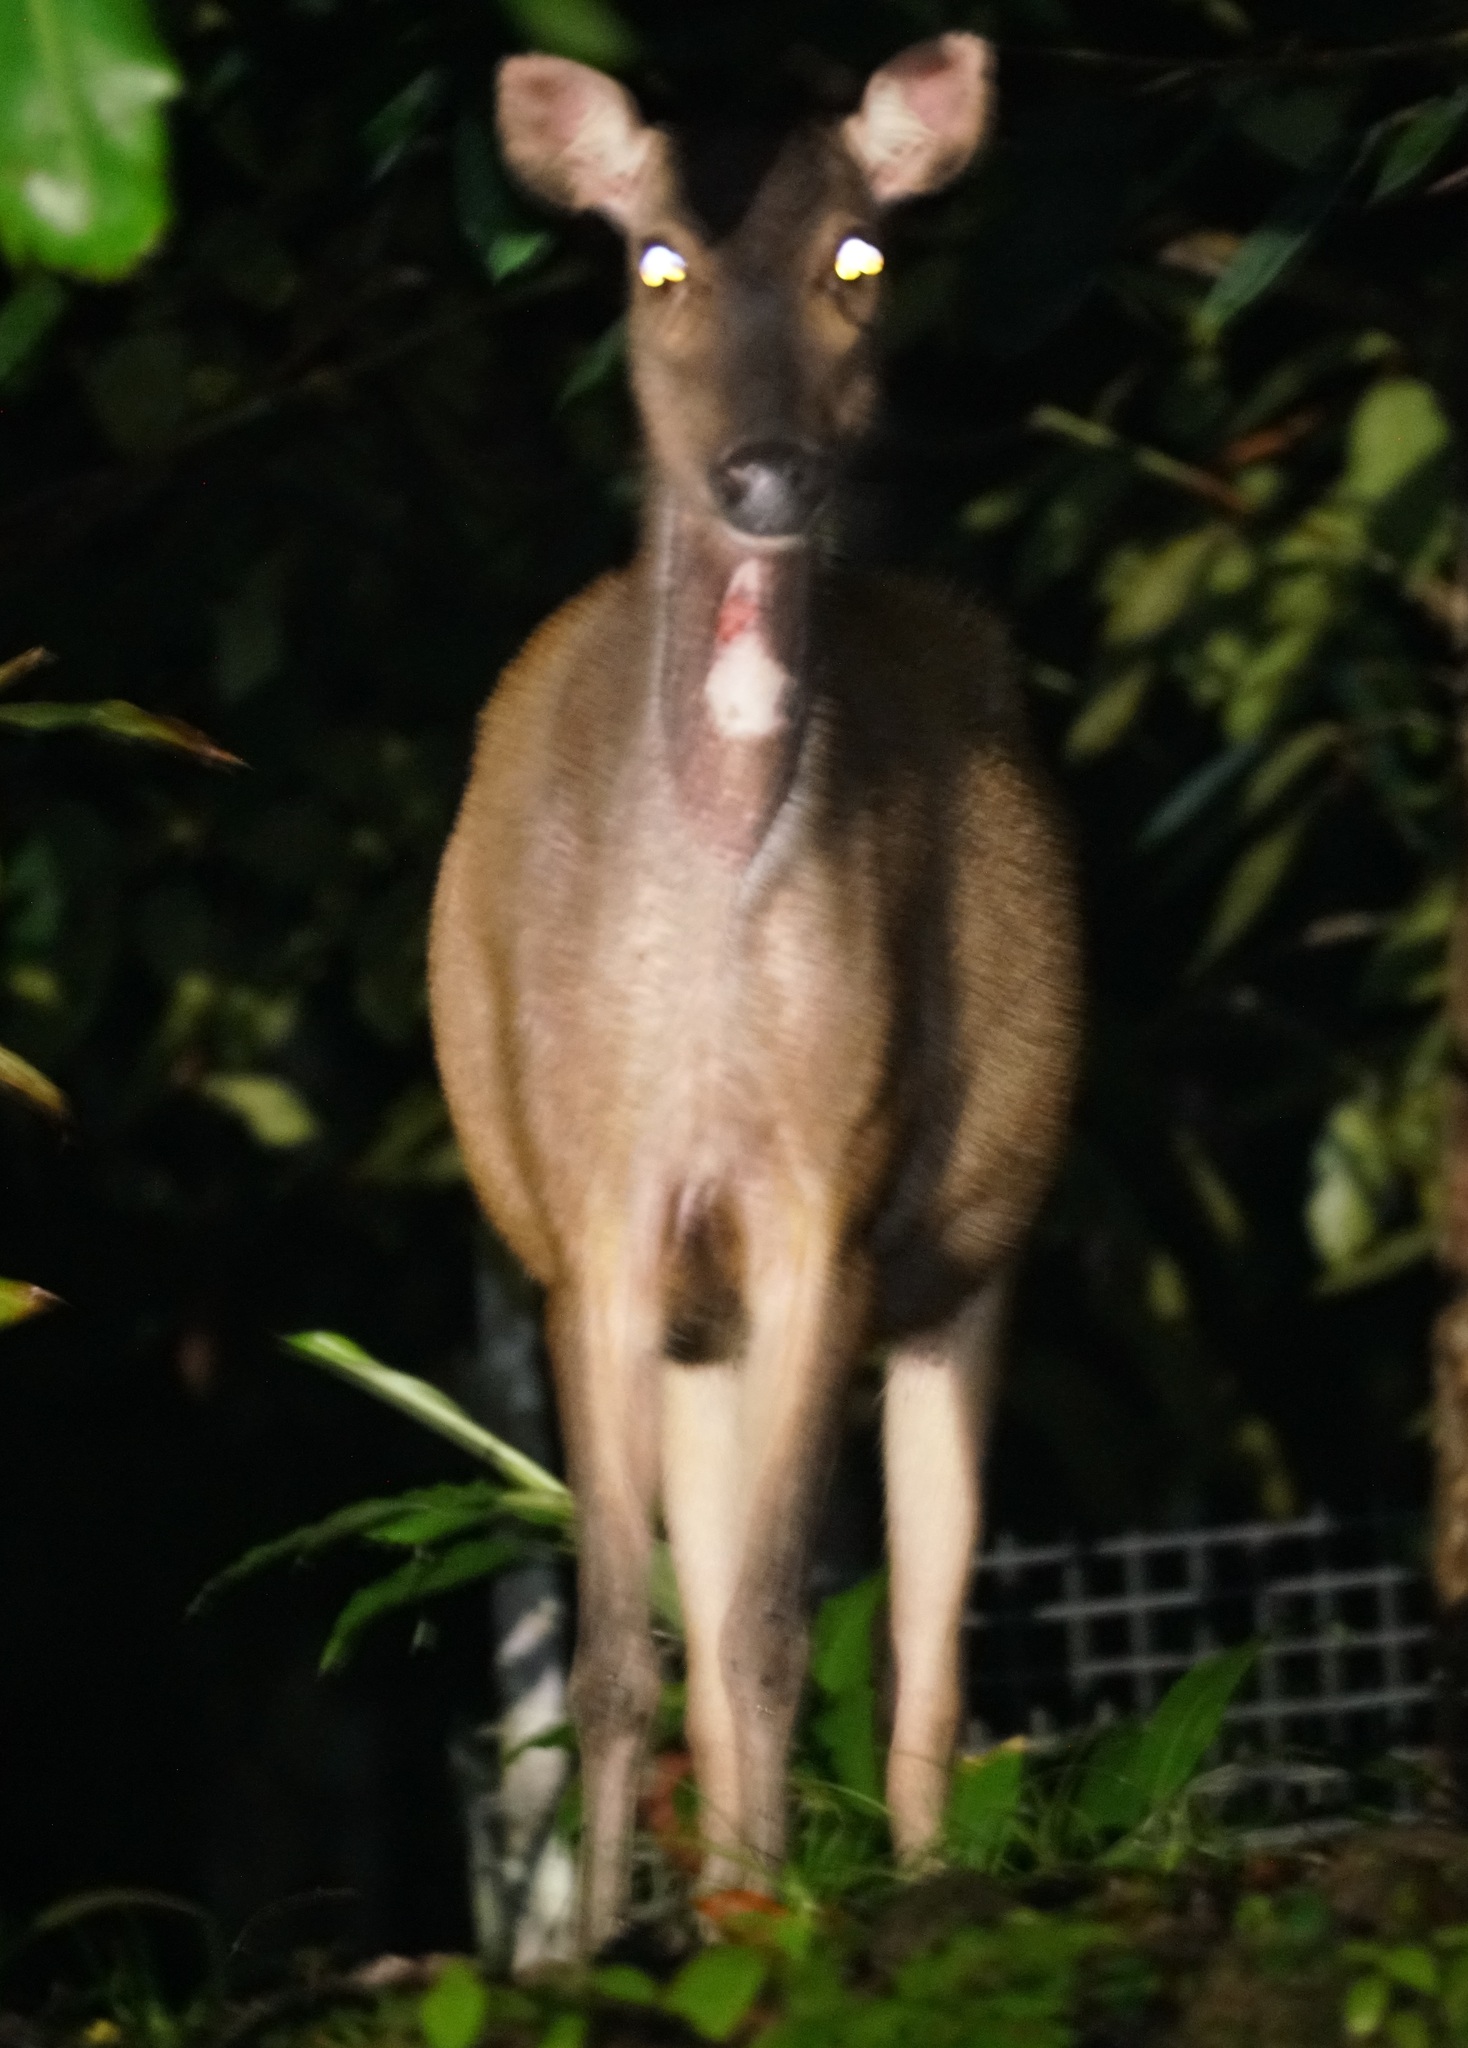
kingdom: Animalia
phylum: Chordata
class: Mammalia
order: Artiodactyla
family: Cervidae
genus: Rusa
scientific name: Rusa unicolor
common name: Sambar
